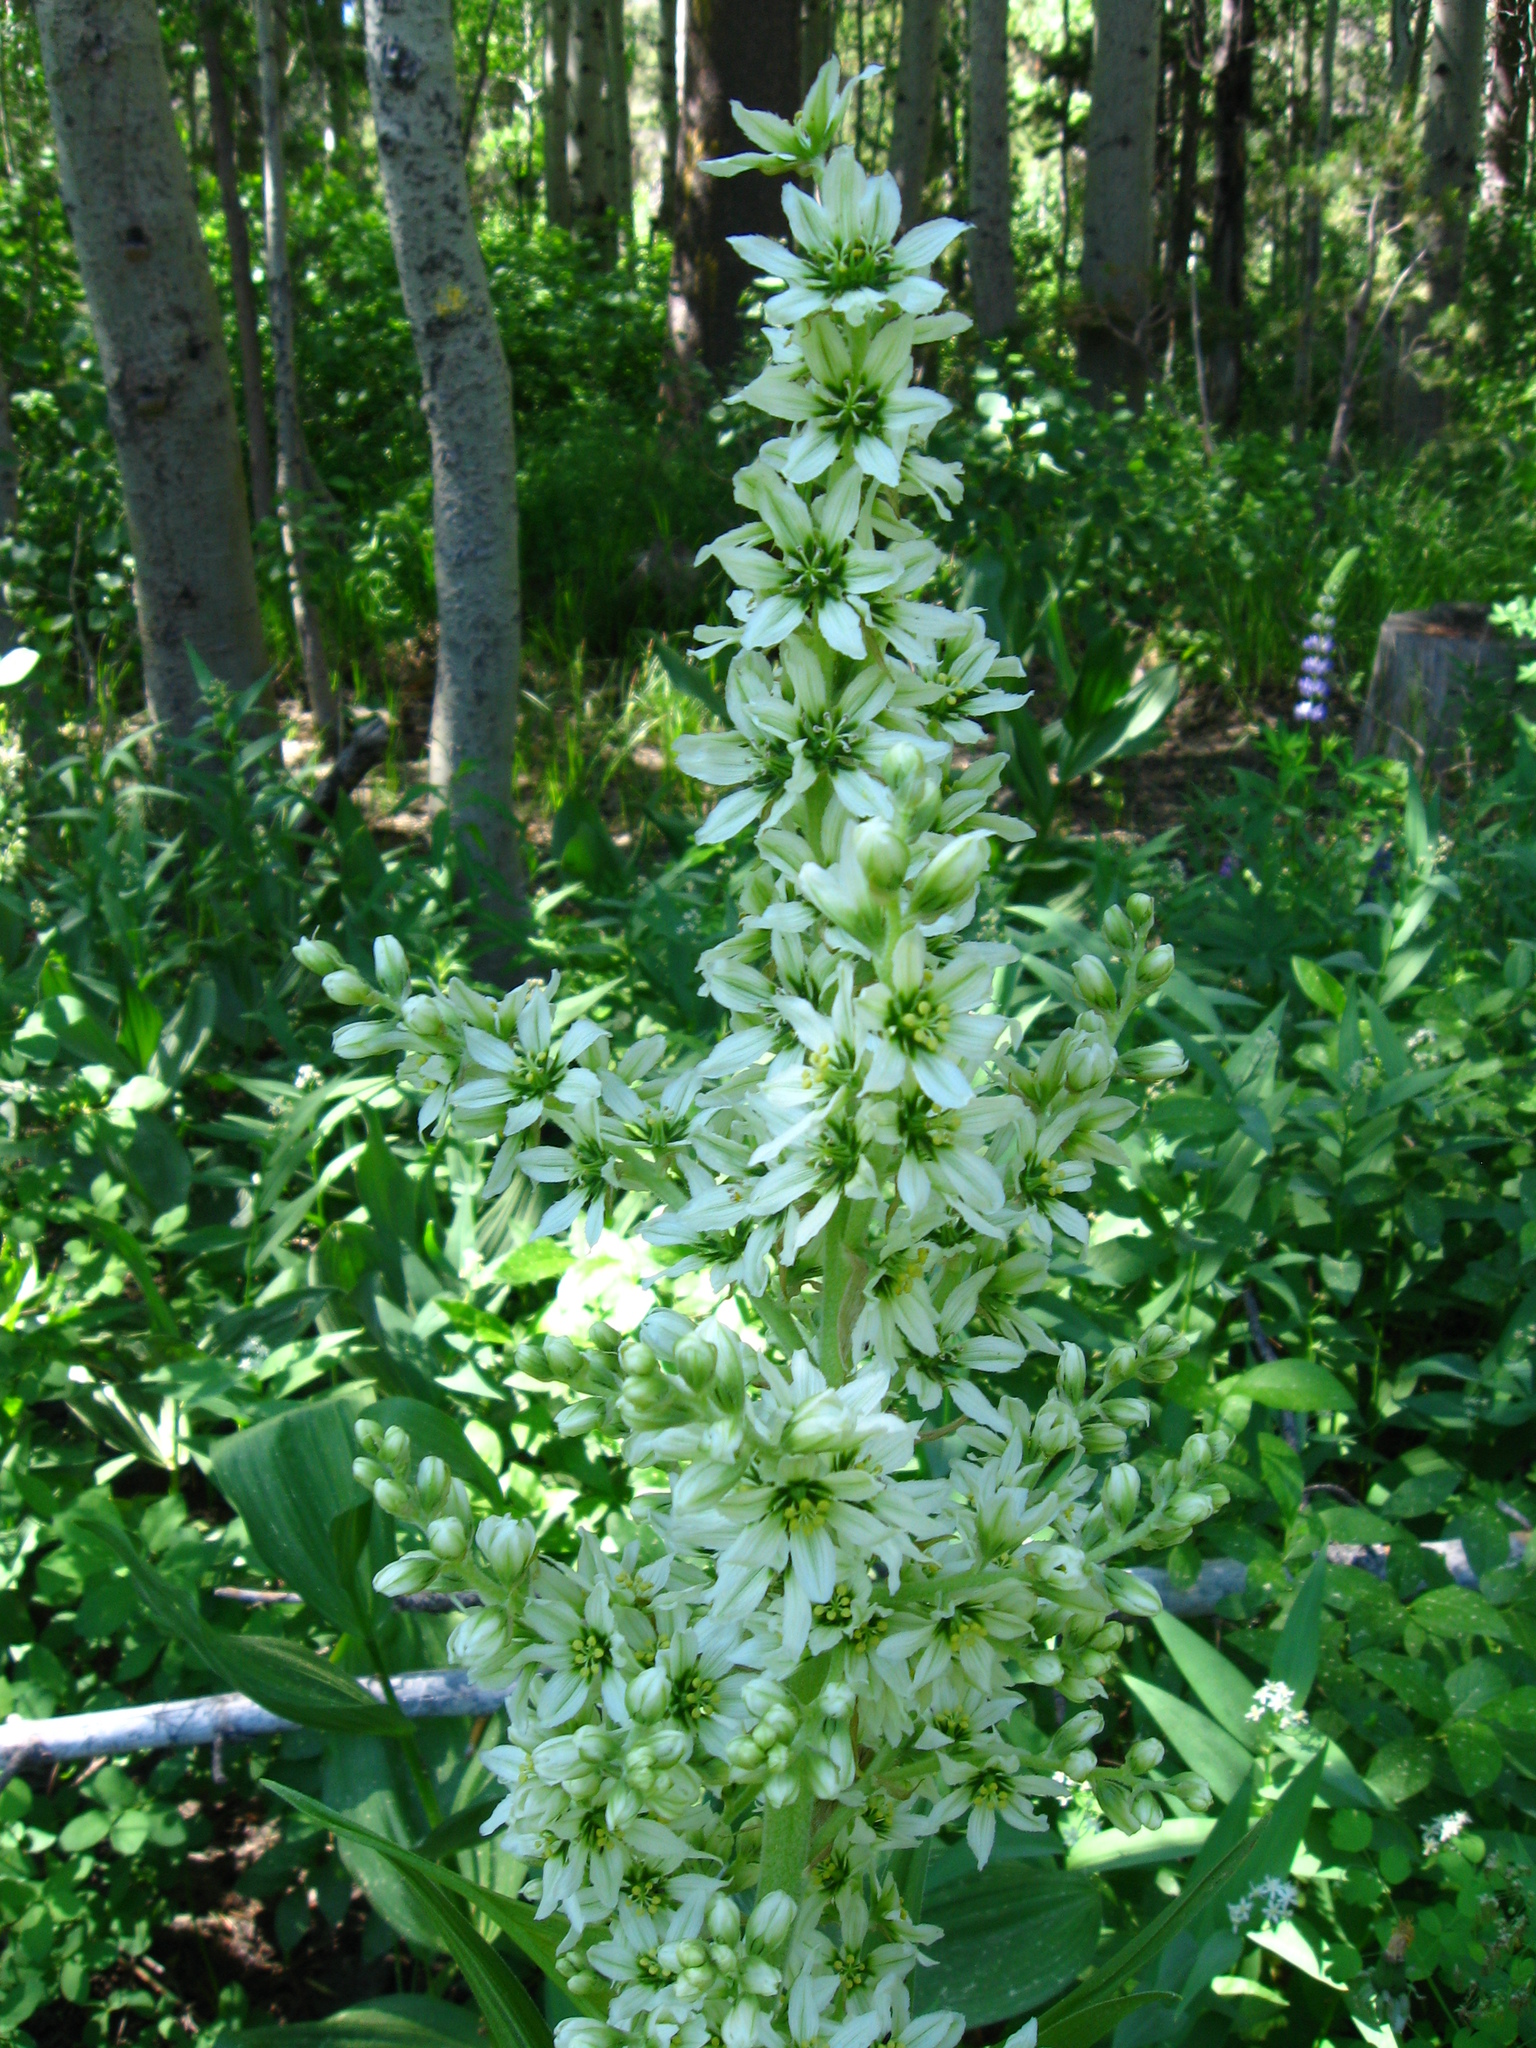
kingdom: Plantae
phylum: Tracheophyta
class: Liliopsida
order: Liliales
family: Melanthiaceae
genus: Veratrum
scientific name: Veratrum californicum
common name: California veratrum
